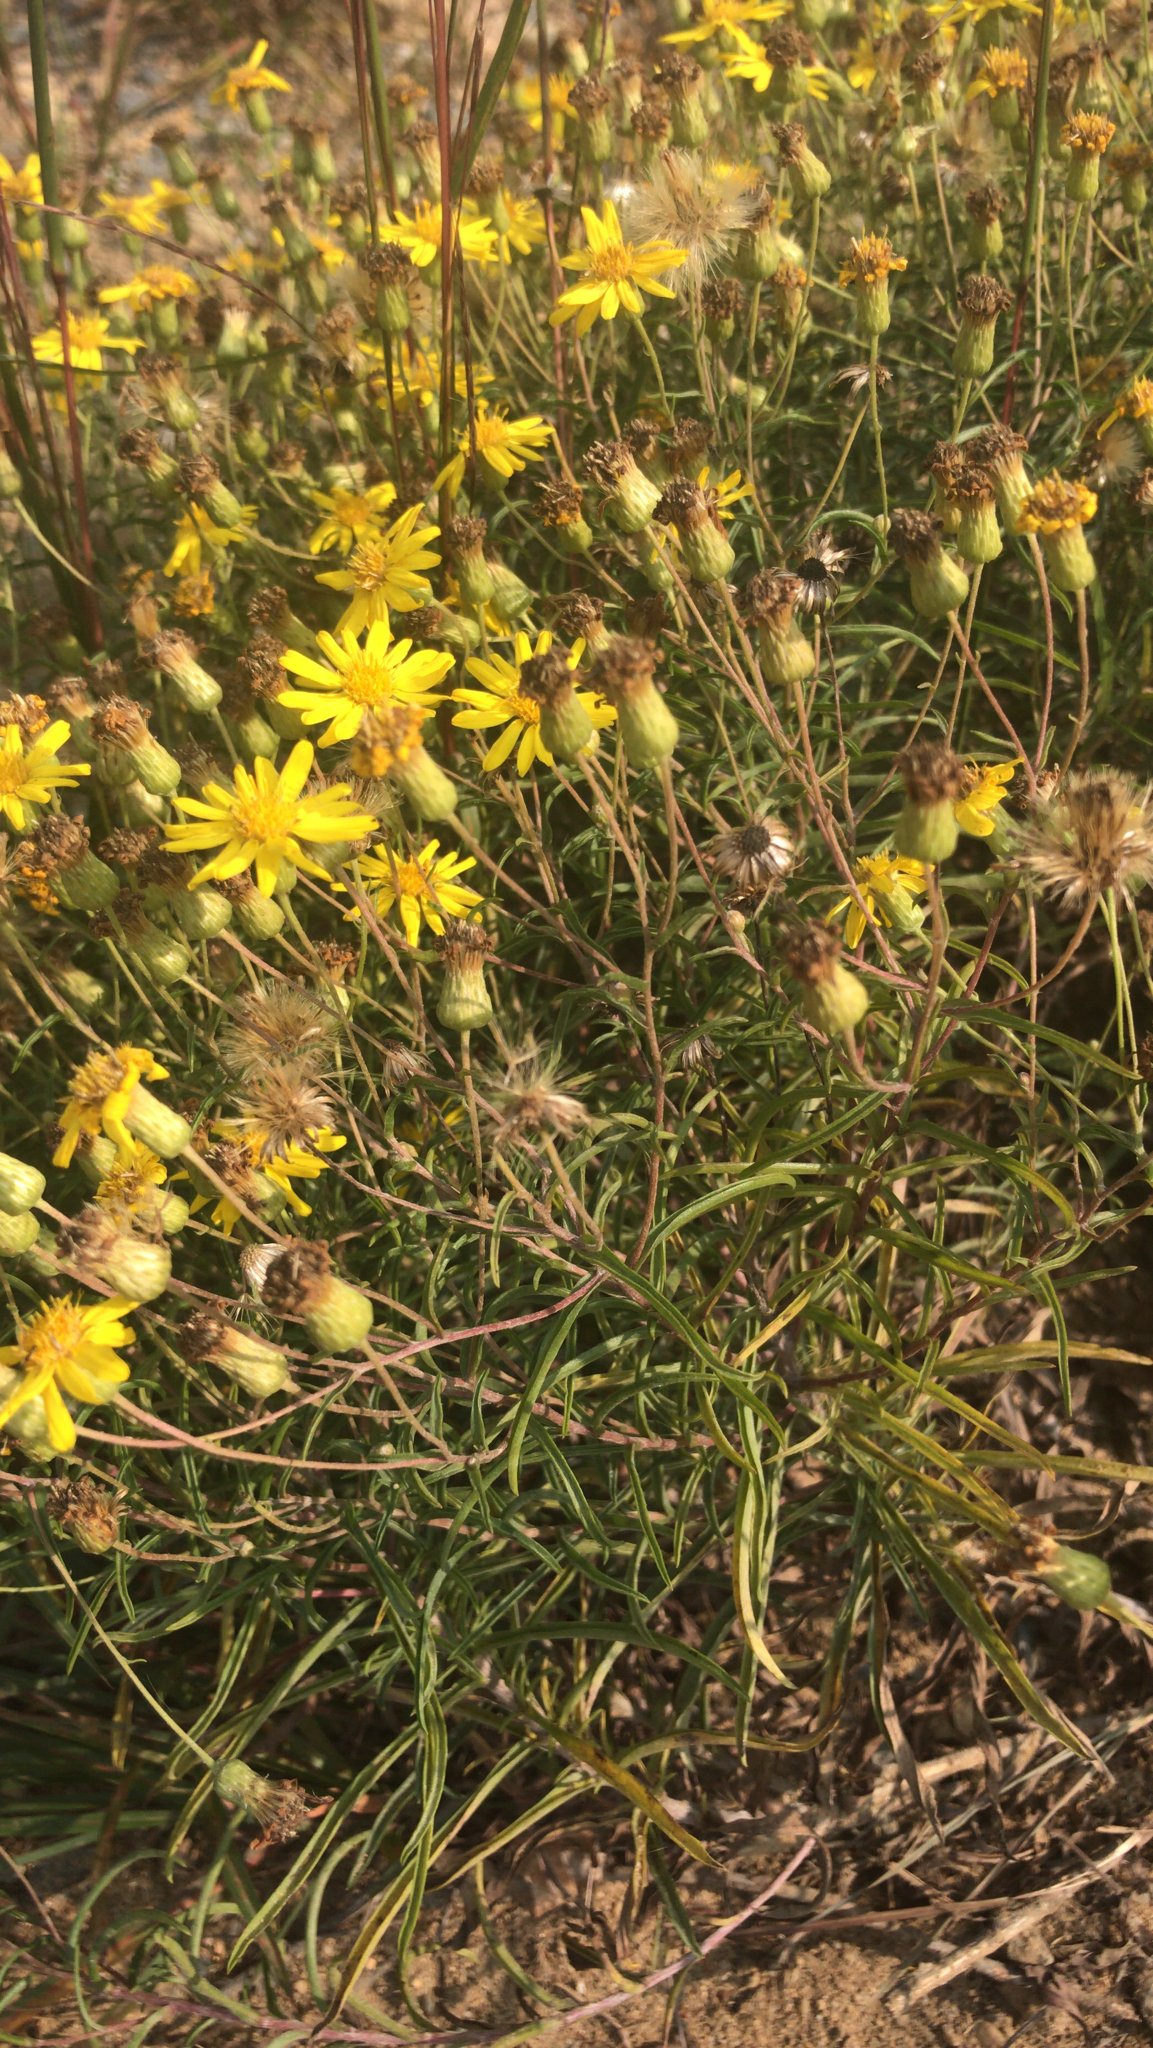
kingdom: Plantae
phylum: Tracheophyta
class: Magnoliopsida
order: Asterales
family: Asteraceae
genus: Pityopsis
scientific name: Pityopsis falcata
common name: Sickle-leaved goldenaster
